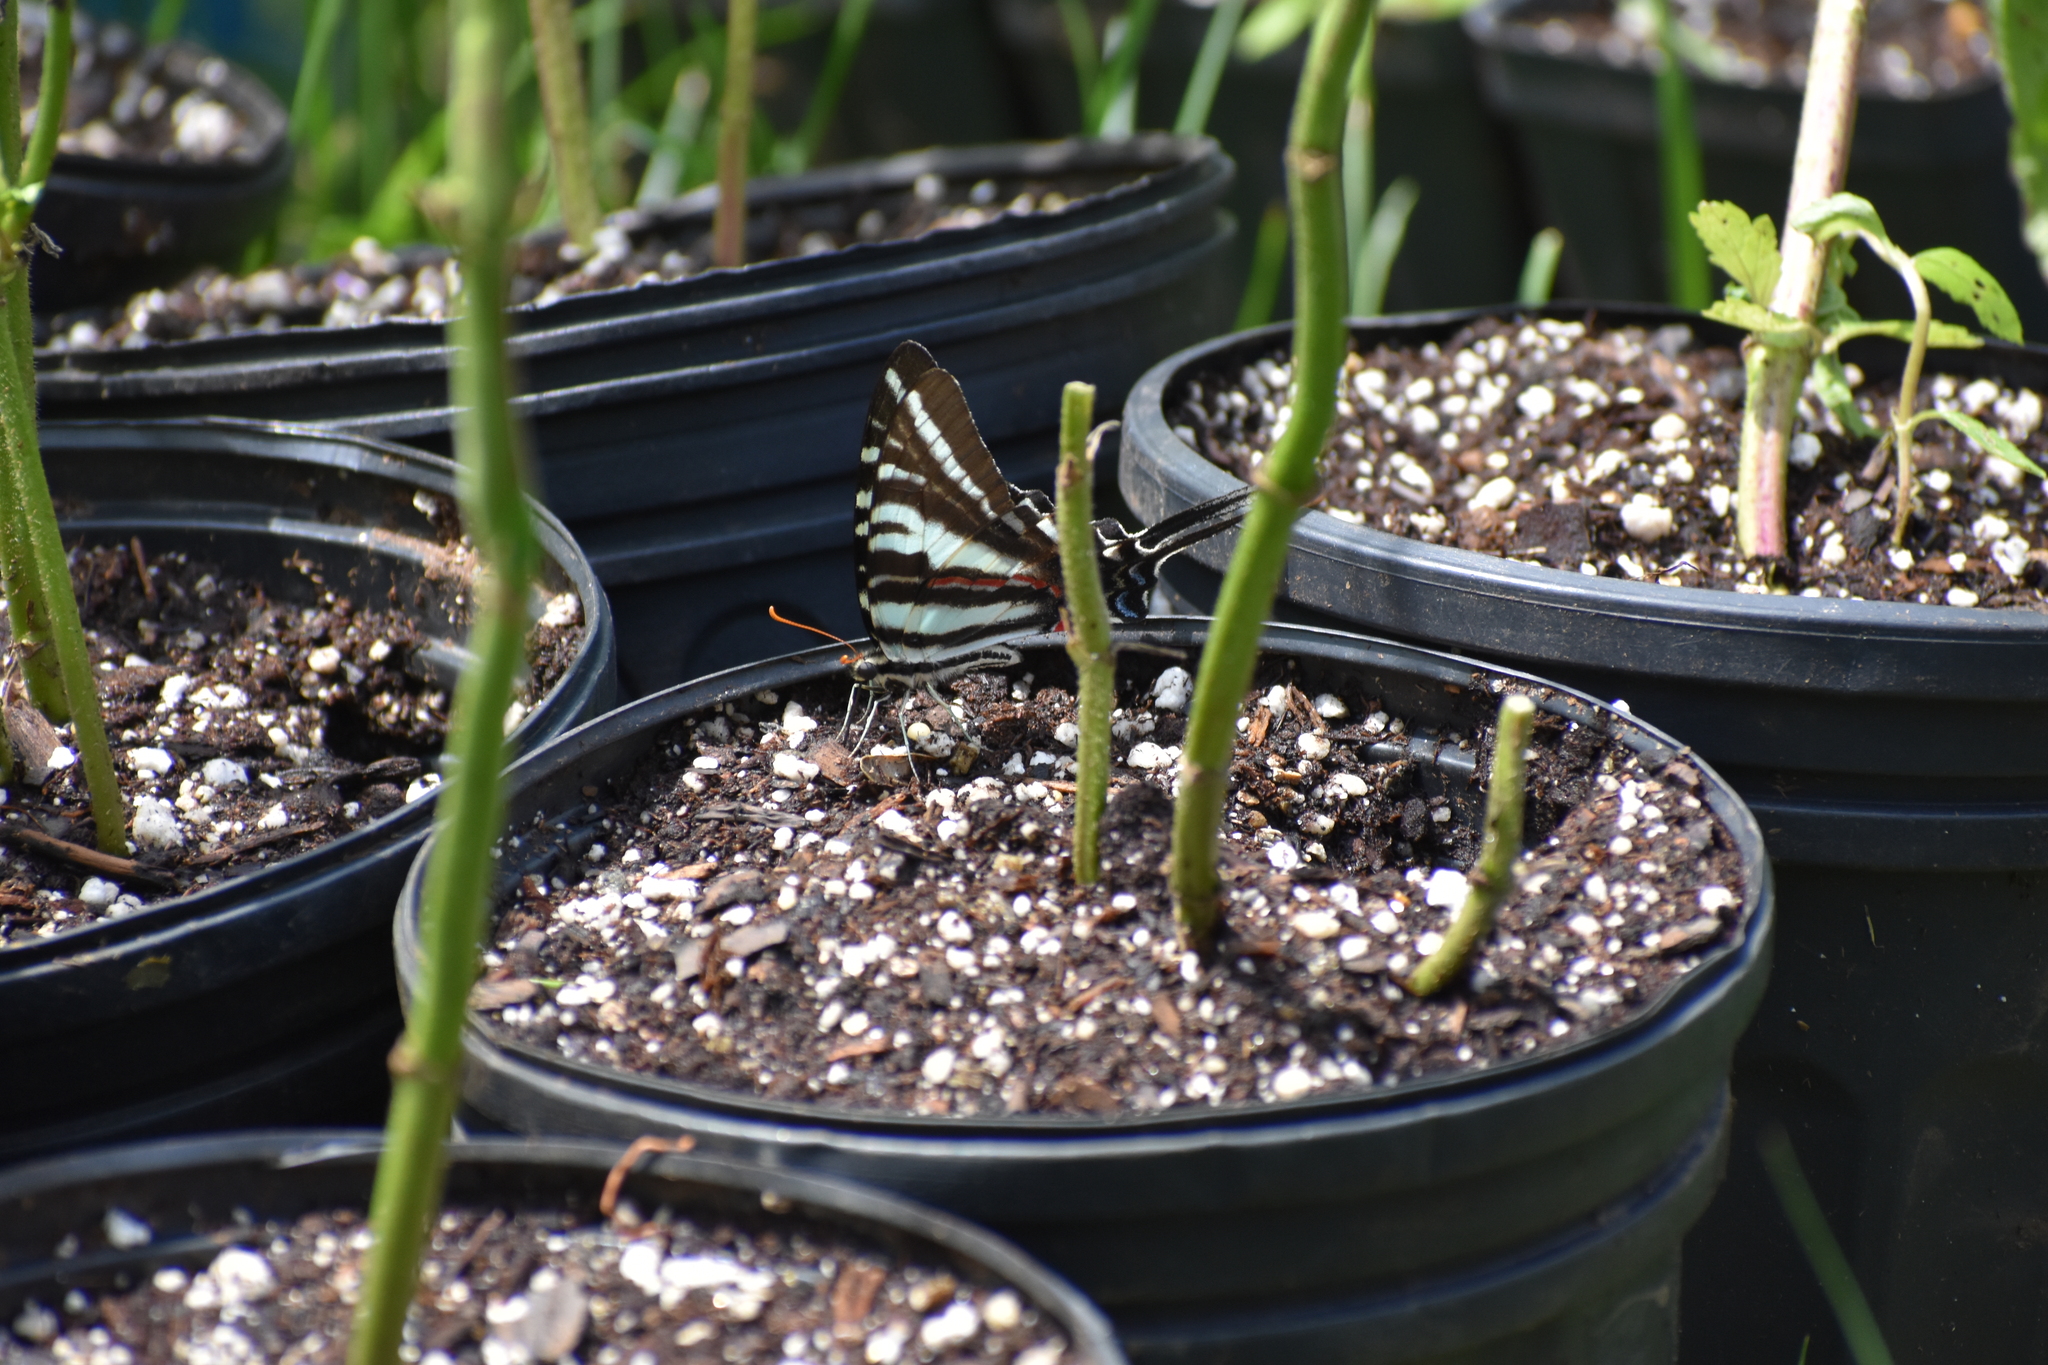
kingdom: Animalia
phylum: Arthropoda
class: Insecta
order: Lepidoptera
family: Papilionidae
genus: Protographium
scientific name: Protographium marcellus
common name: Zebra swallowtail
